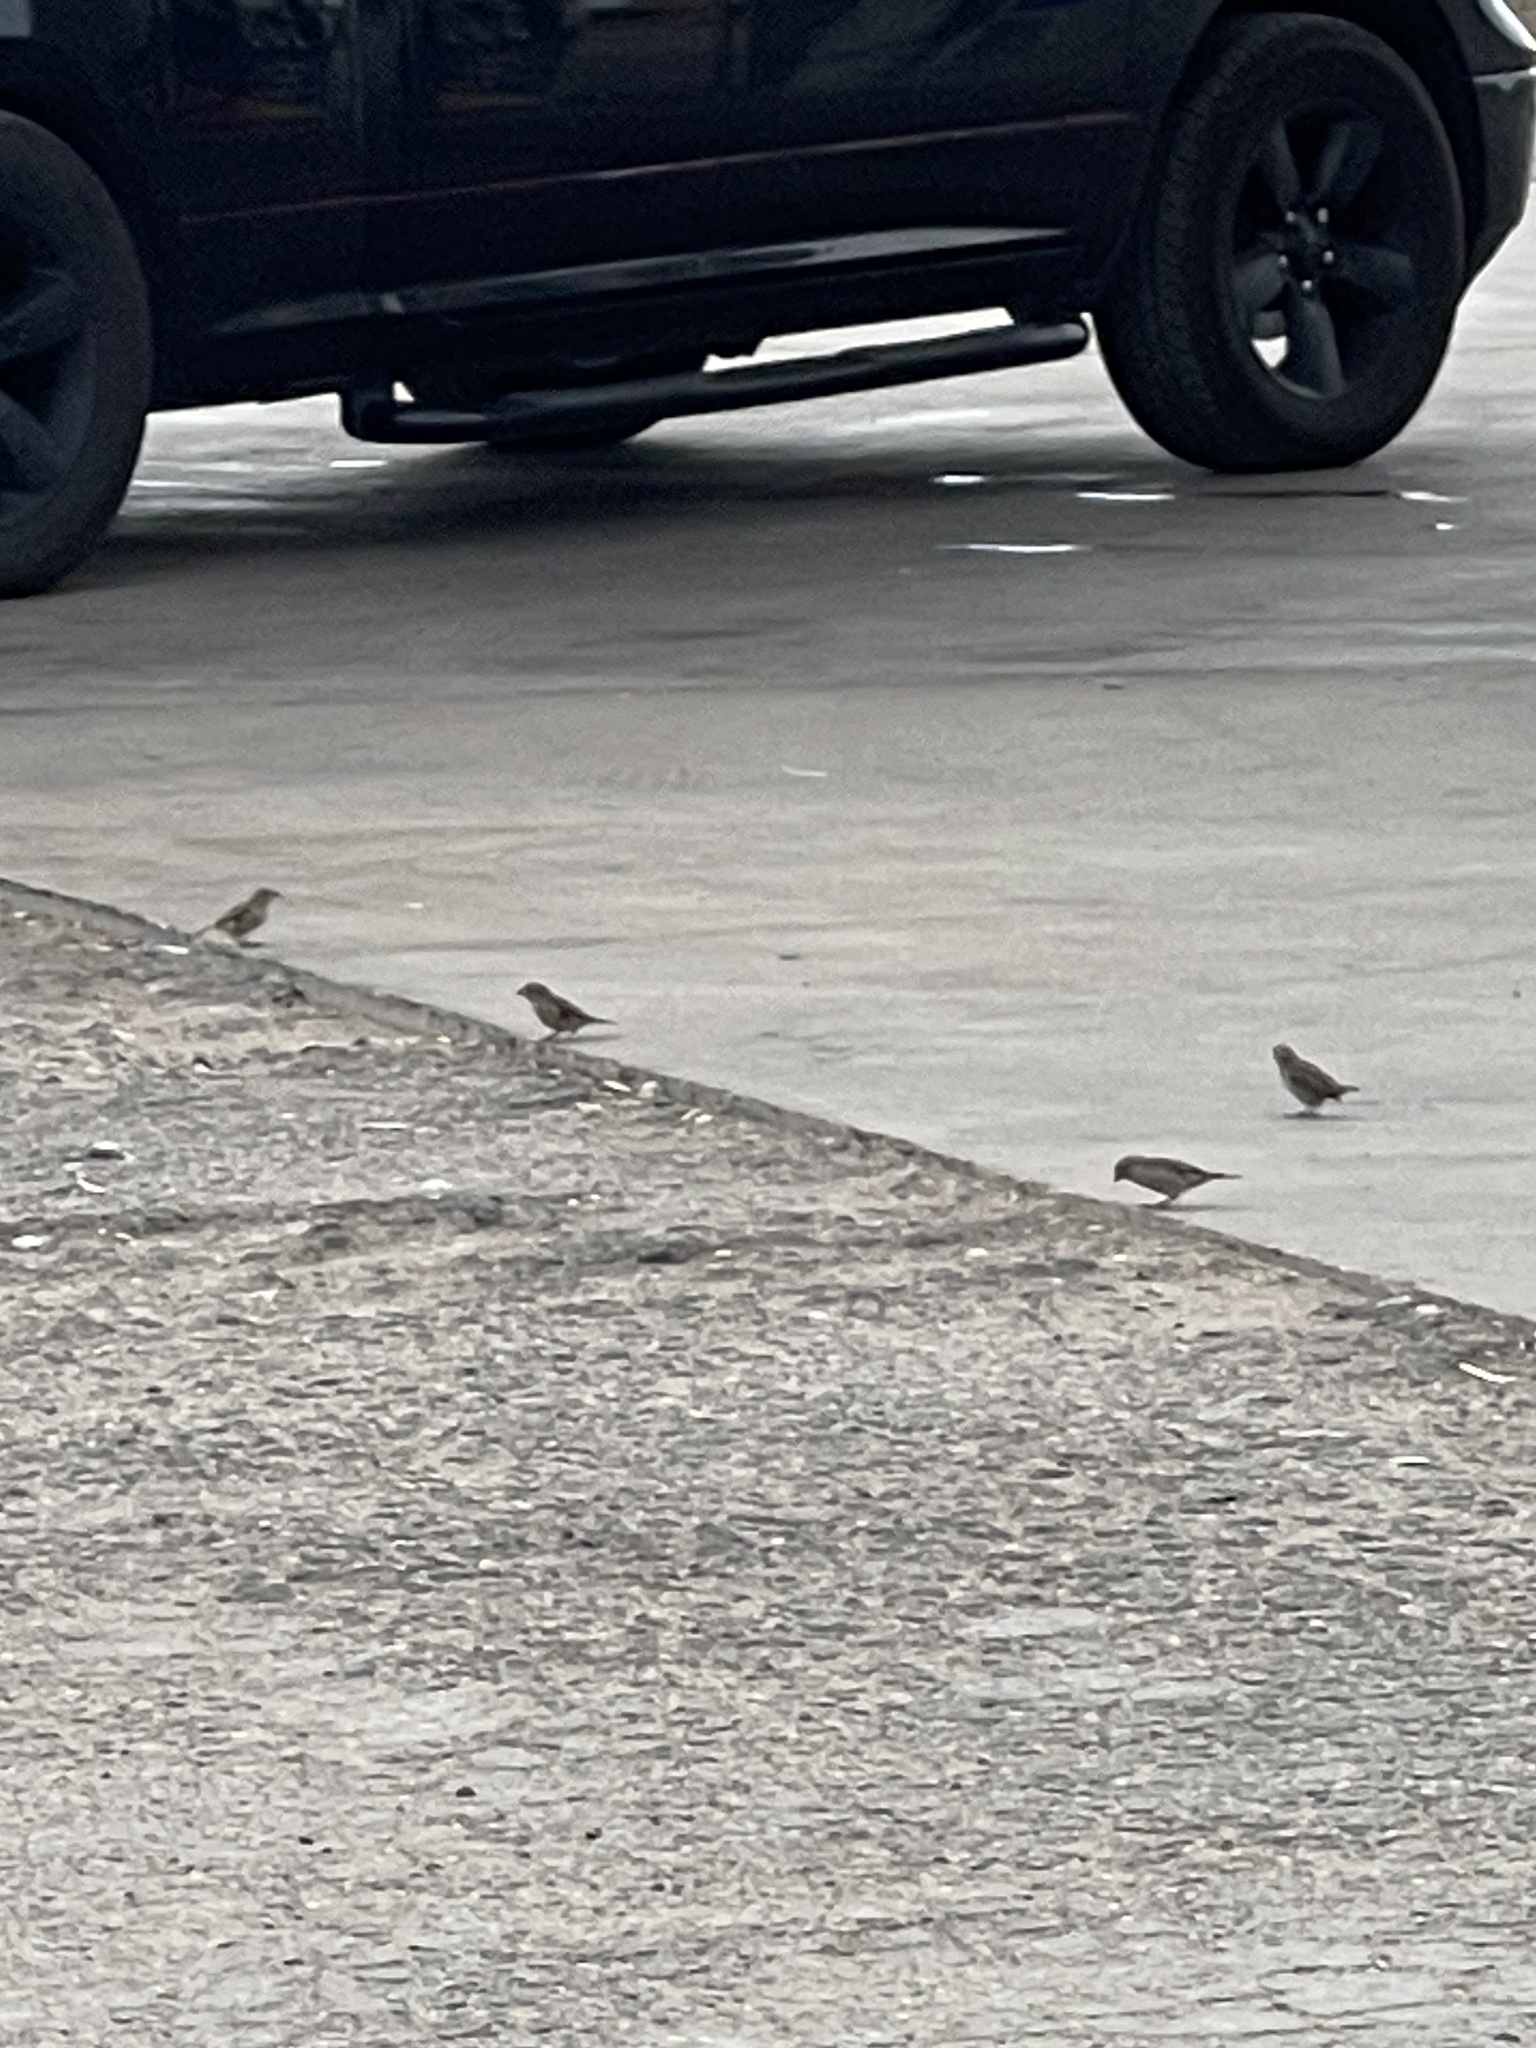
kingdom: Animalia
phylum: Chordata
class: Aves
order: Passeriformes
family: Passeridae
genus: Passer
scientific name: Passer domesticus
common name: House sparrow
